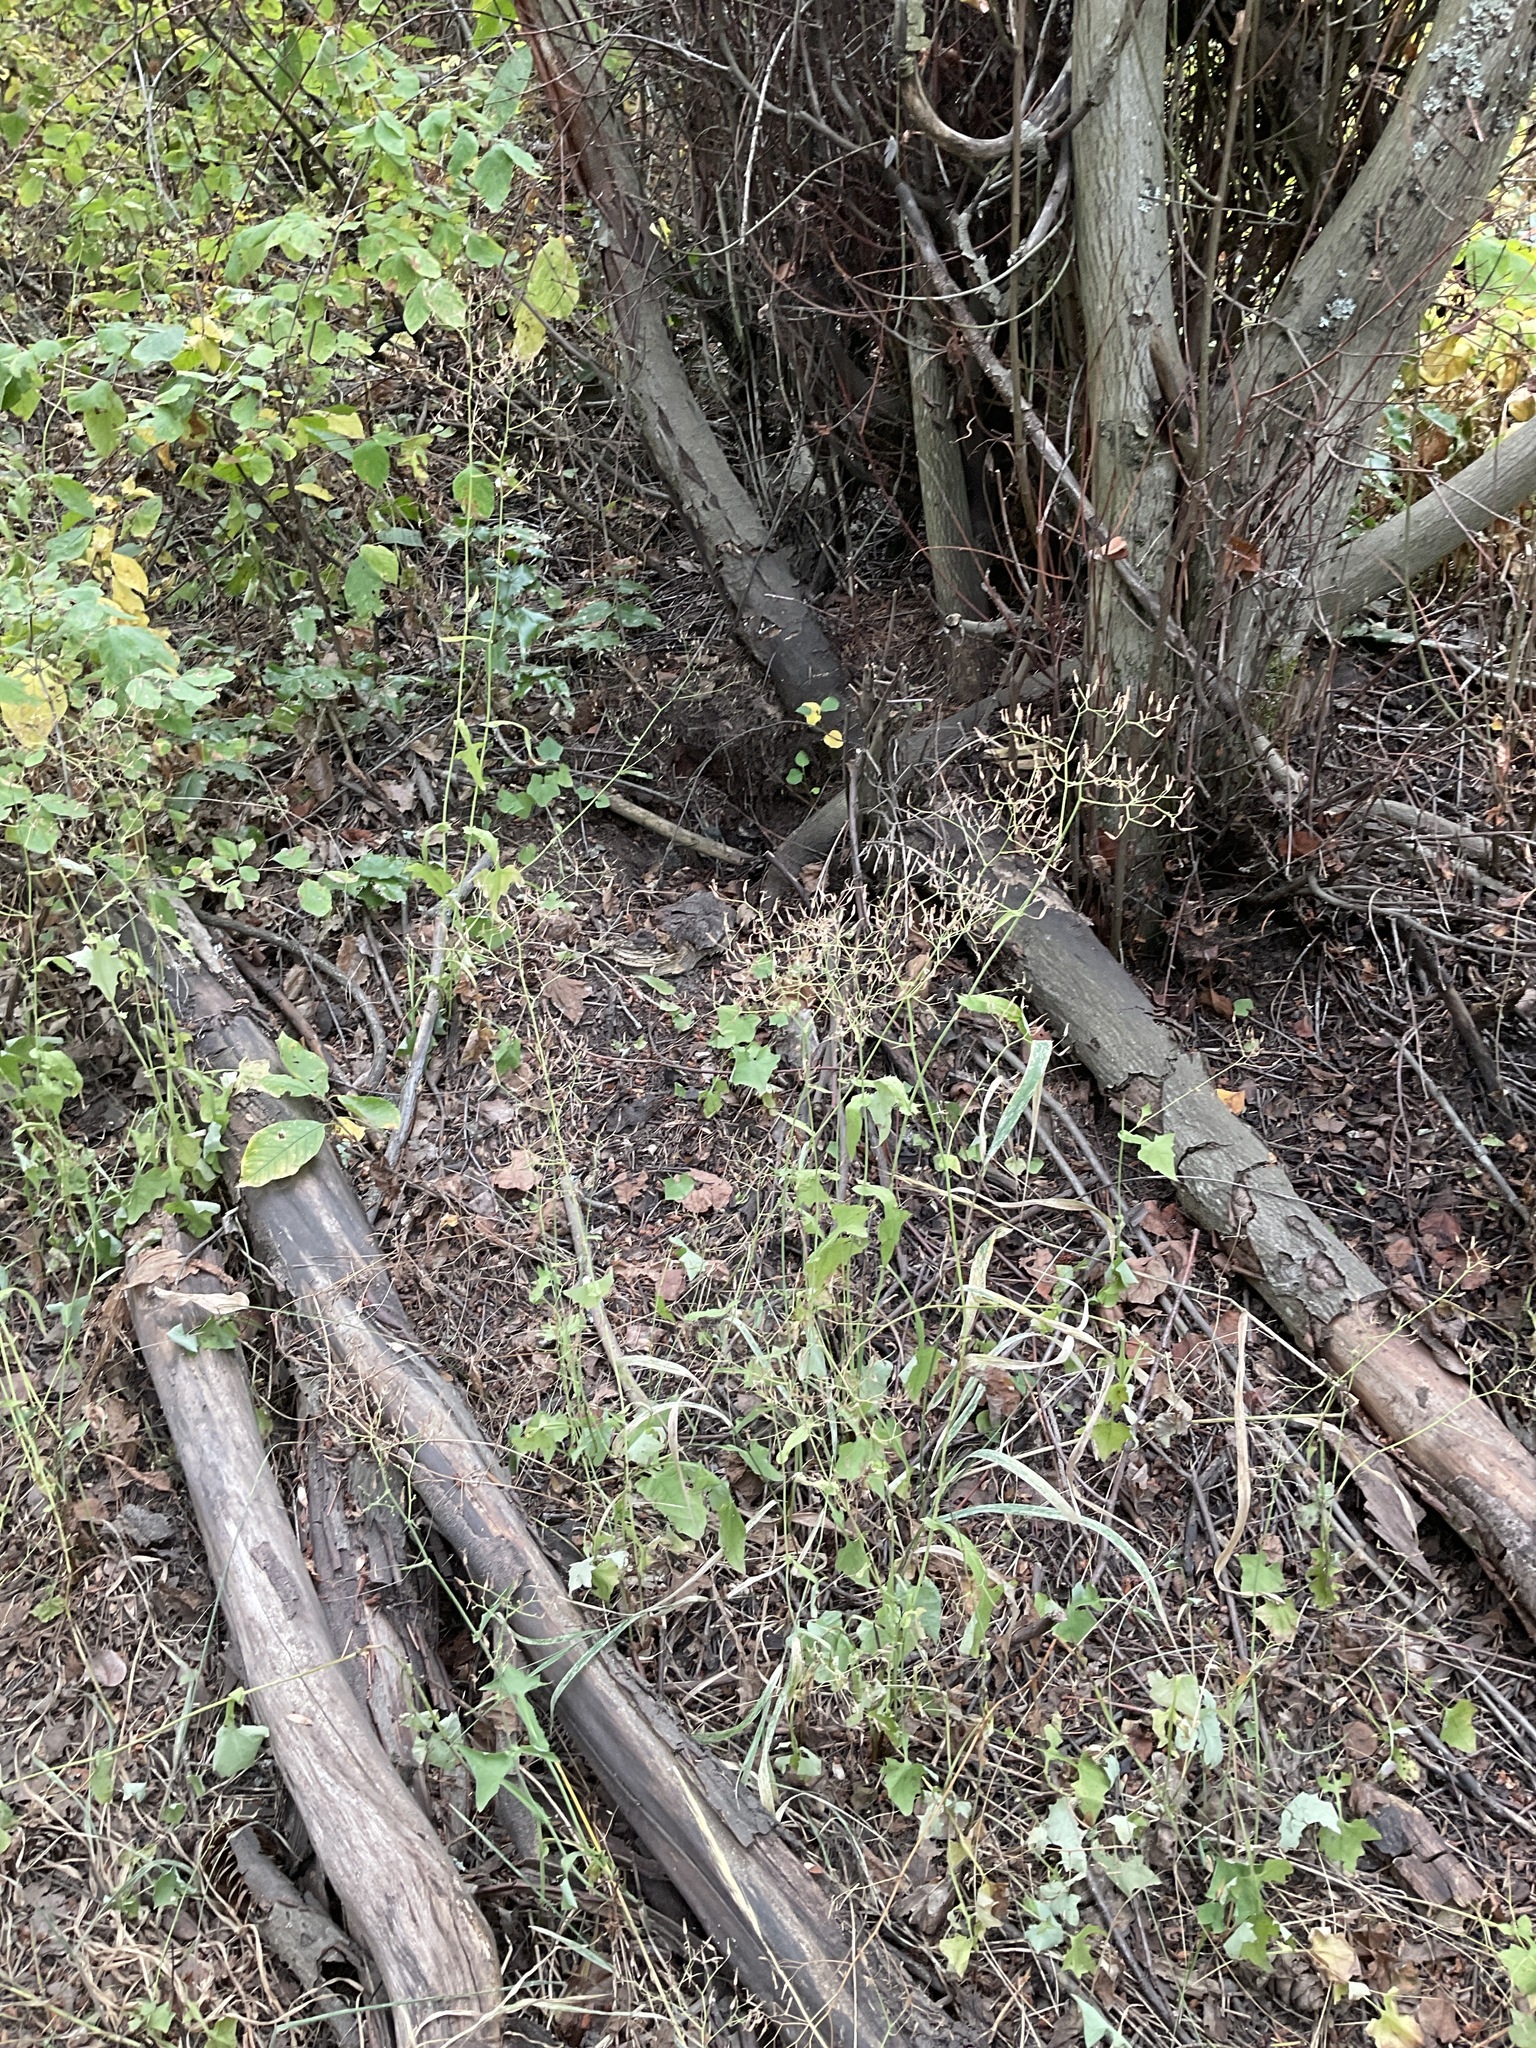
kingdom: Plantae
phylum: Tracheophyta
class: Magnoliopsida
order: Asterales
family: Asteraceae
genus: Mycelis
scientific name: Mycelis muralis
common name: Wall lettuce
